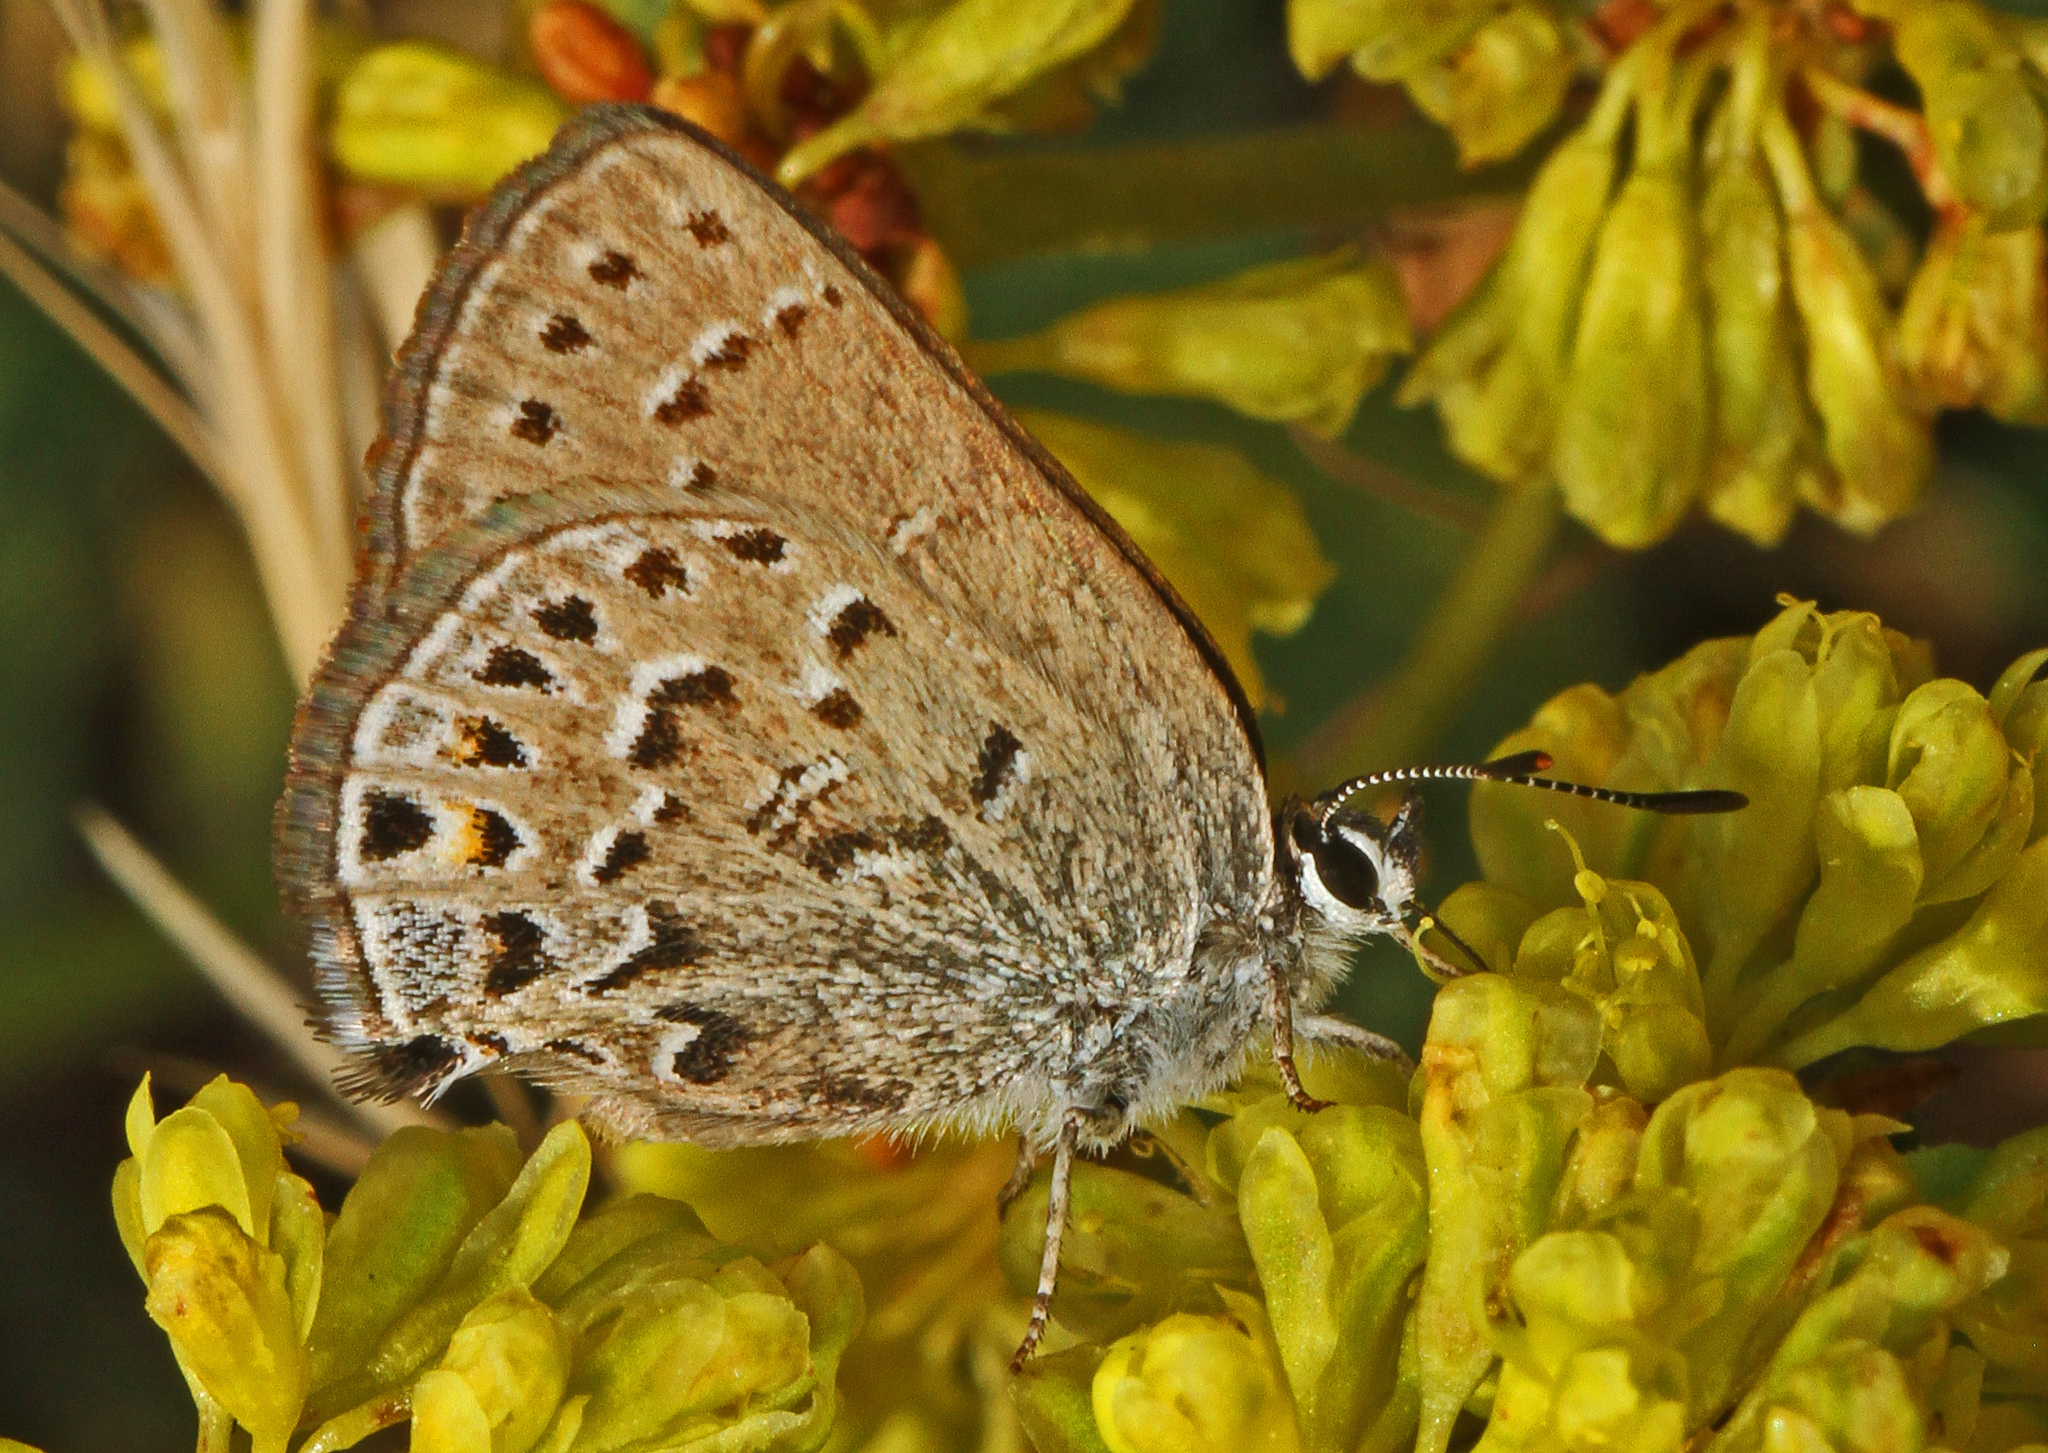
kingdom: Animalia
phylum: Arthropoda
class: Insecta
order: Lepidoptera
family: Lycaenidae
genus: Satyrium
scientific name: Satyrium behrii
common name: Behr's hairstreak
